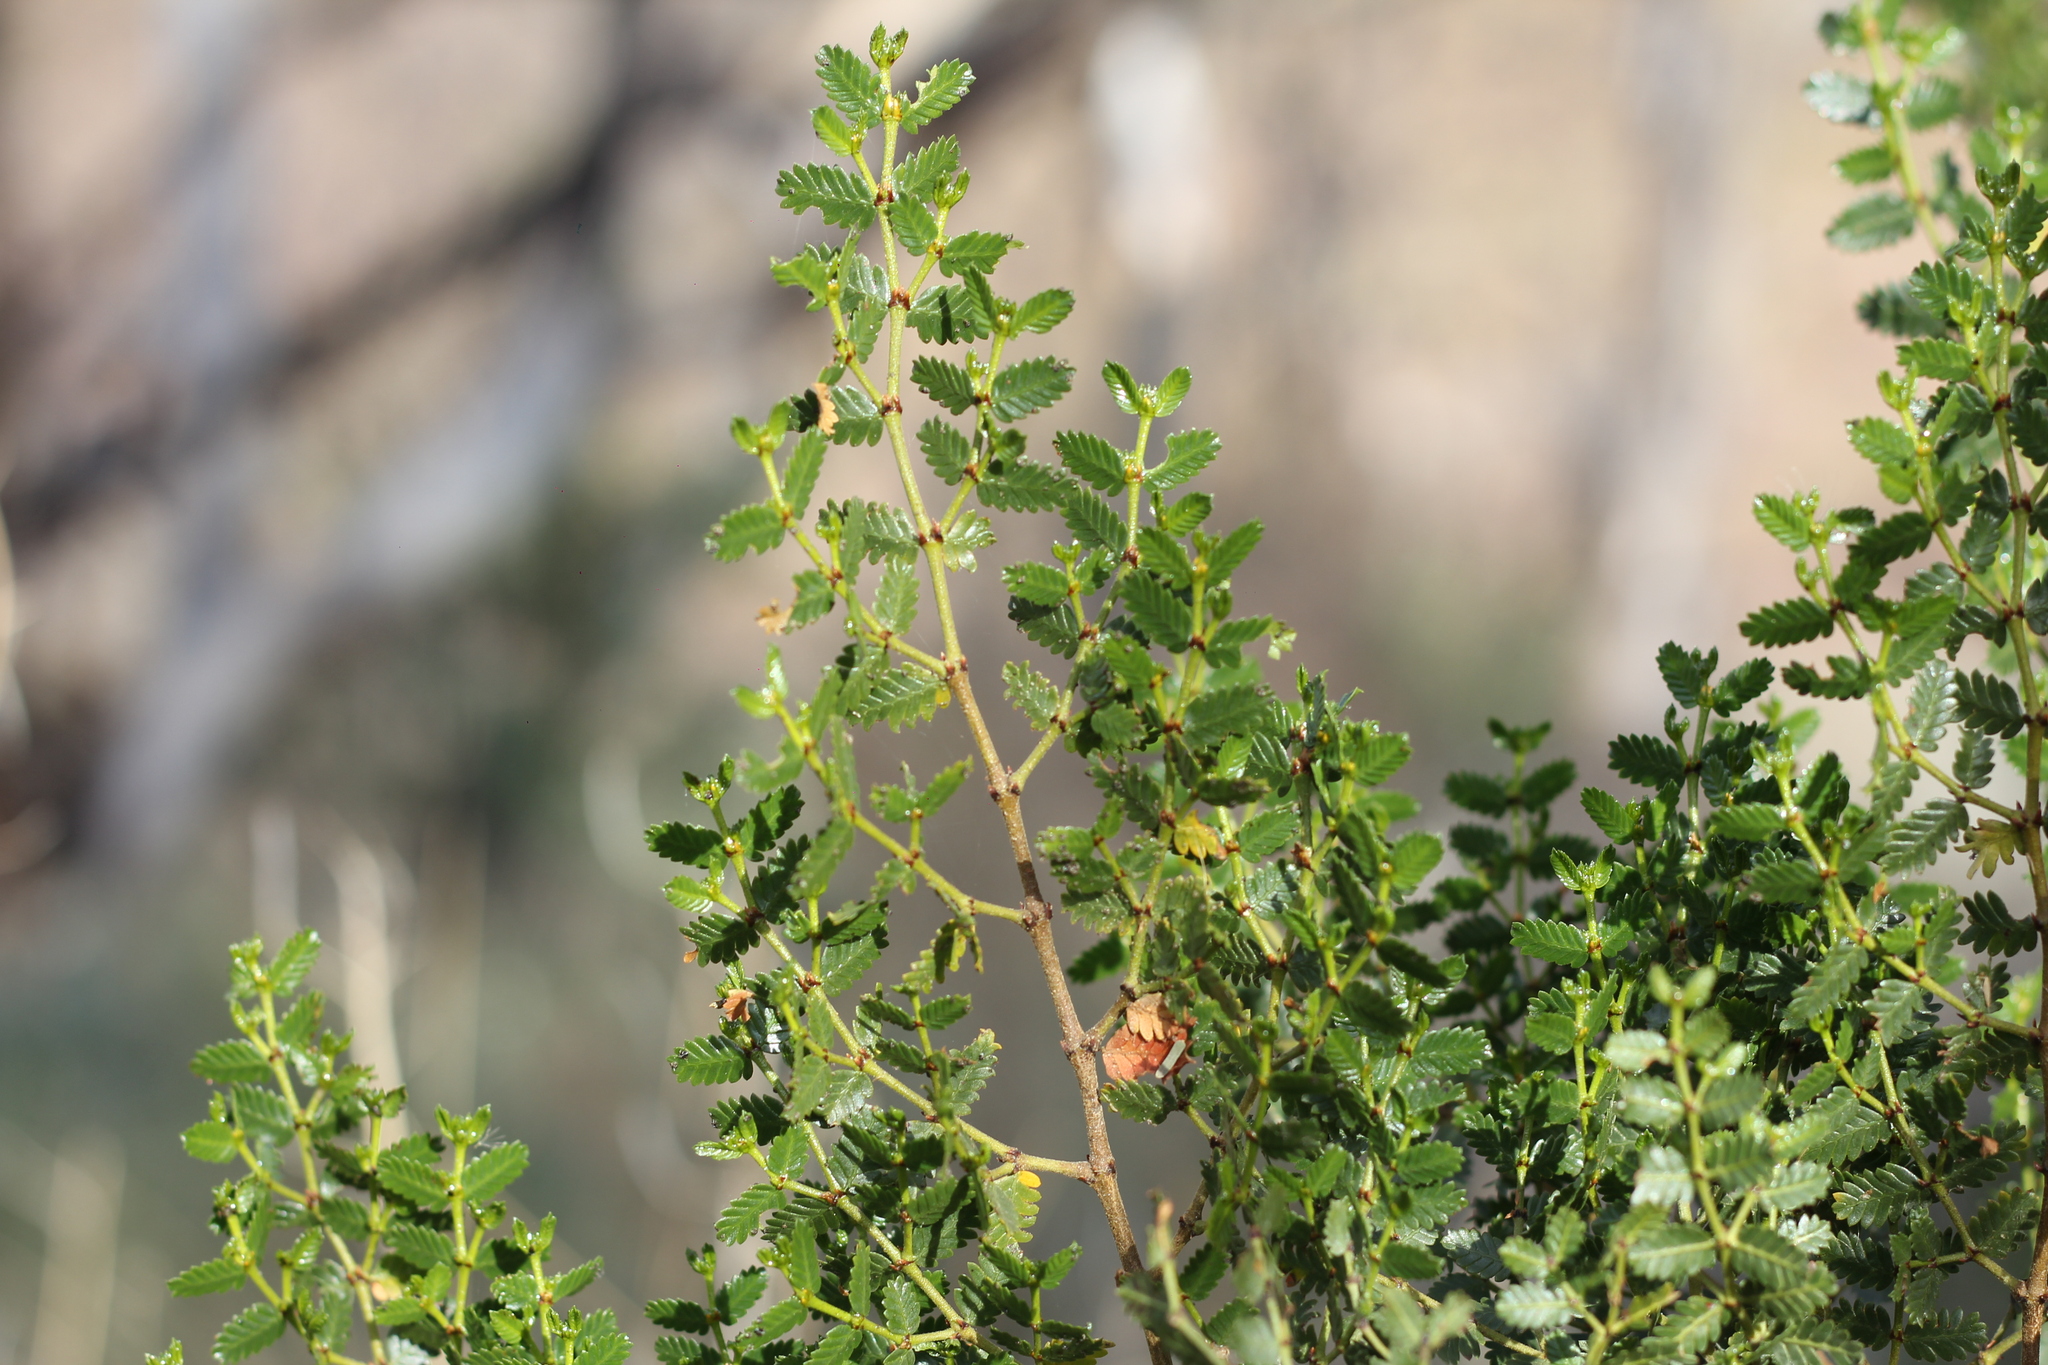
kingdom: Plantae
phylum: Tracheophyta
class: Magnoliopsida
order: Zygophyllales
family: Zygophyllaceae
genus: Larrea
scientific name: Larrea nitida
